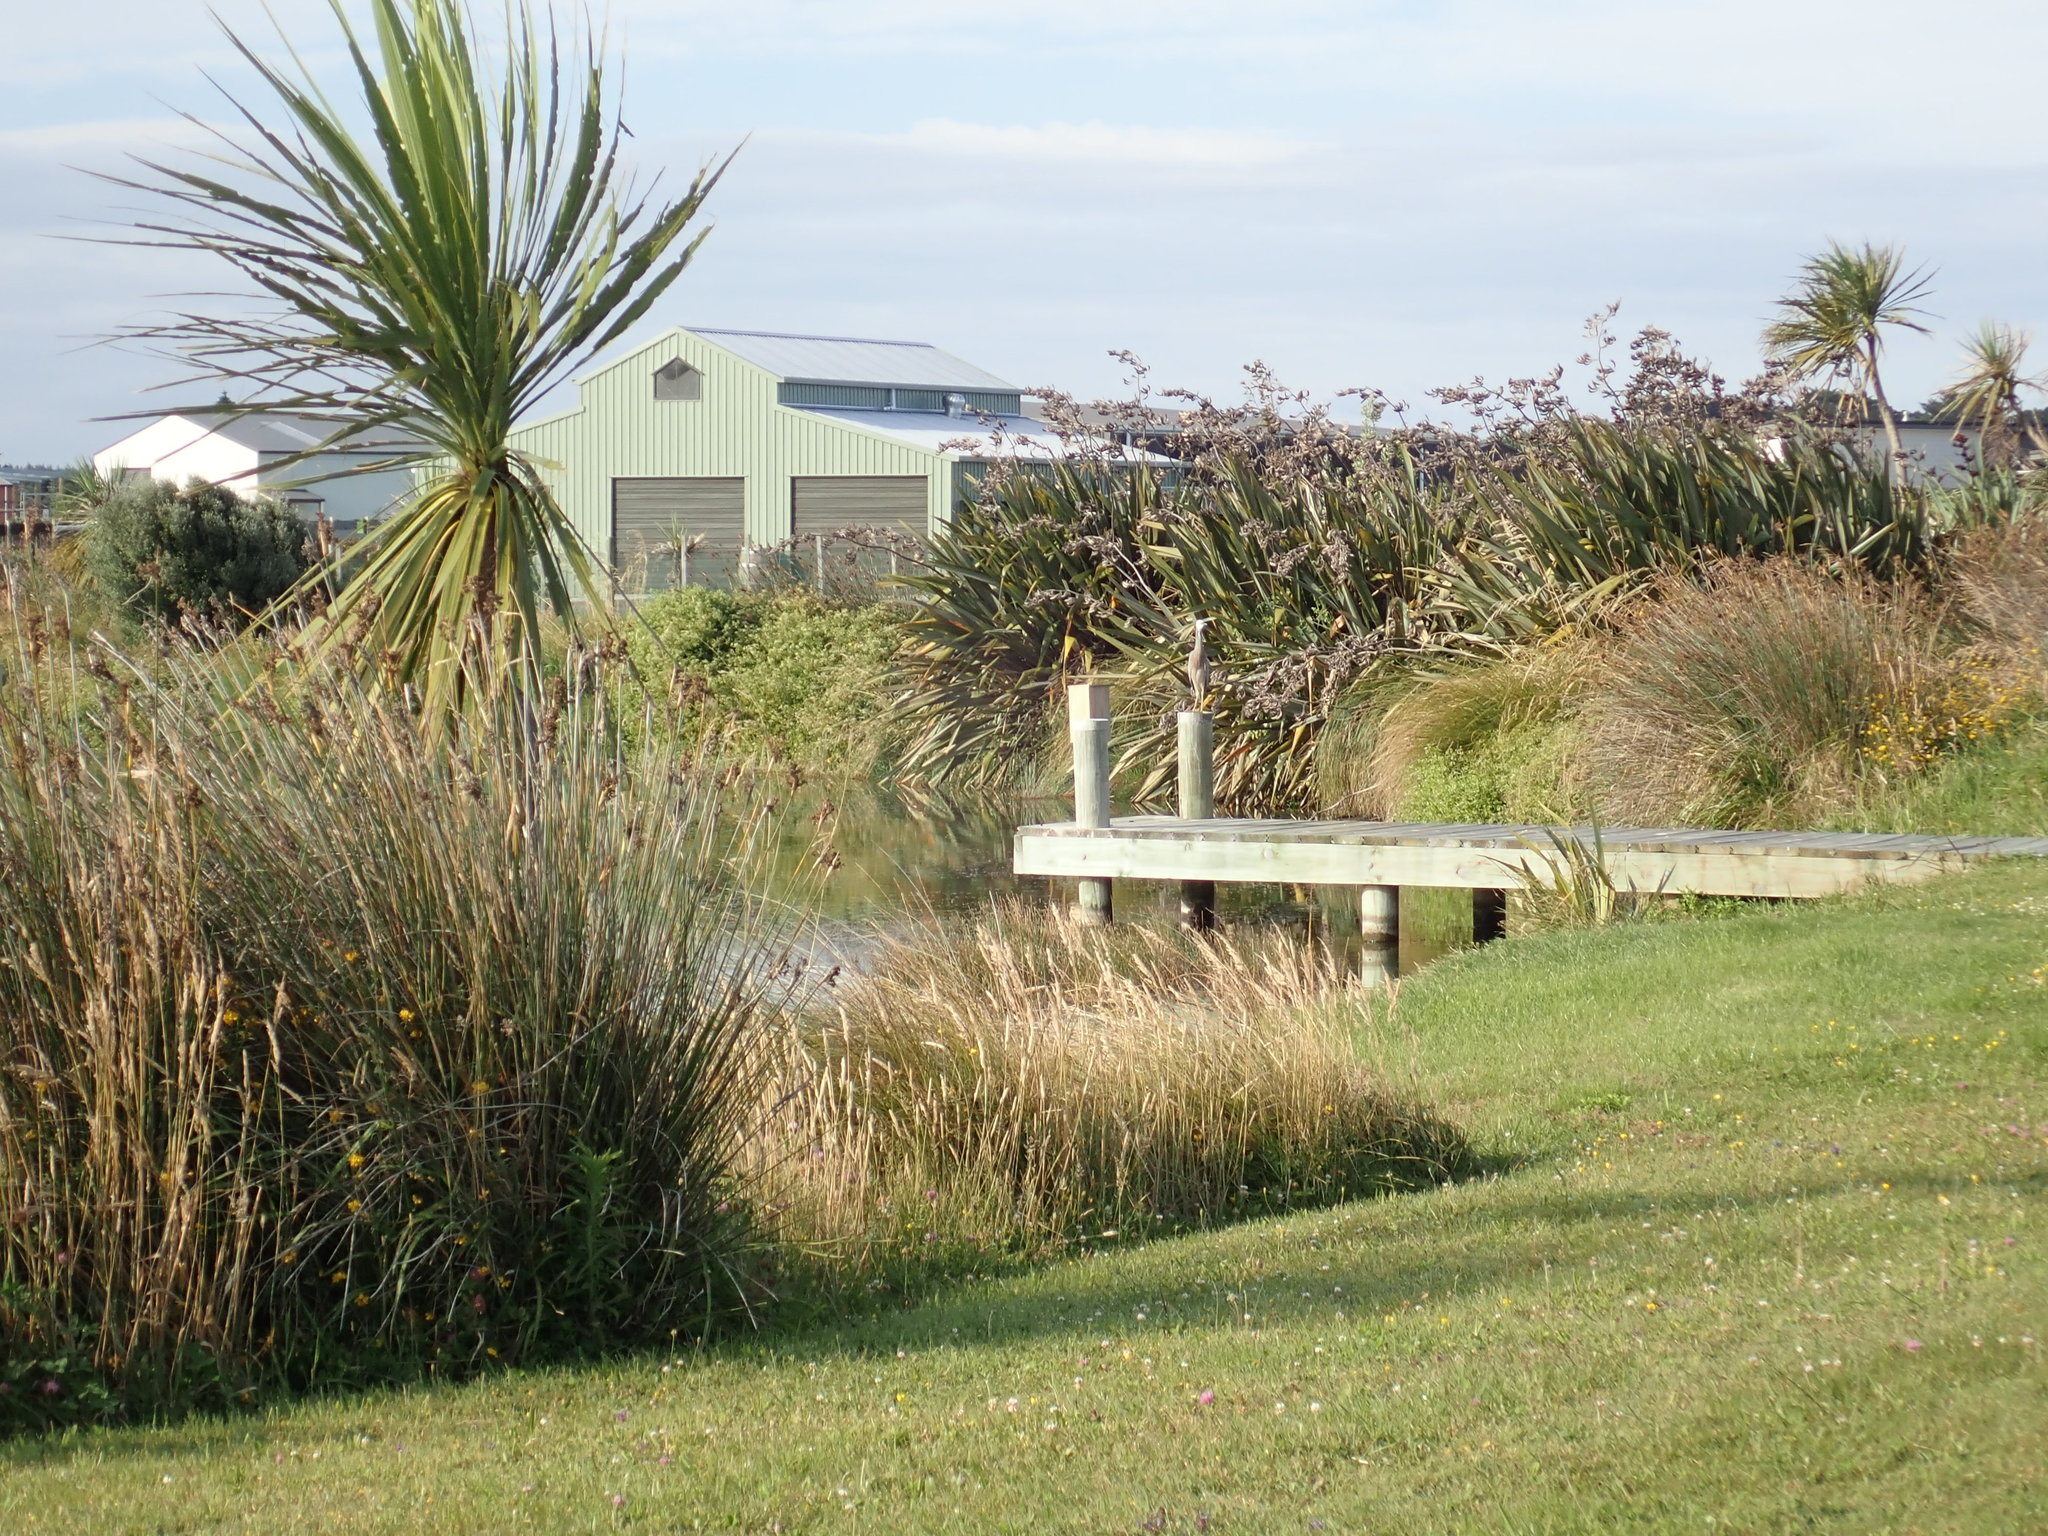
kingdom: Animalia
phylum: Chordata
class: Aves
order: Pelecaniformes
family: Ardeidae
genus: Egretta
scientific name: Egretta novaehollandiae
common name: White-faced heron
